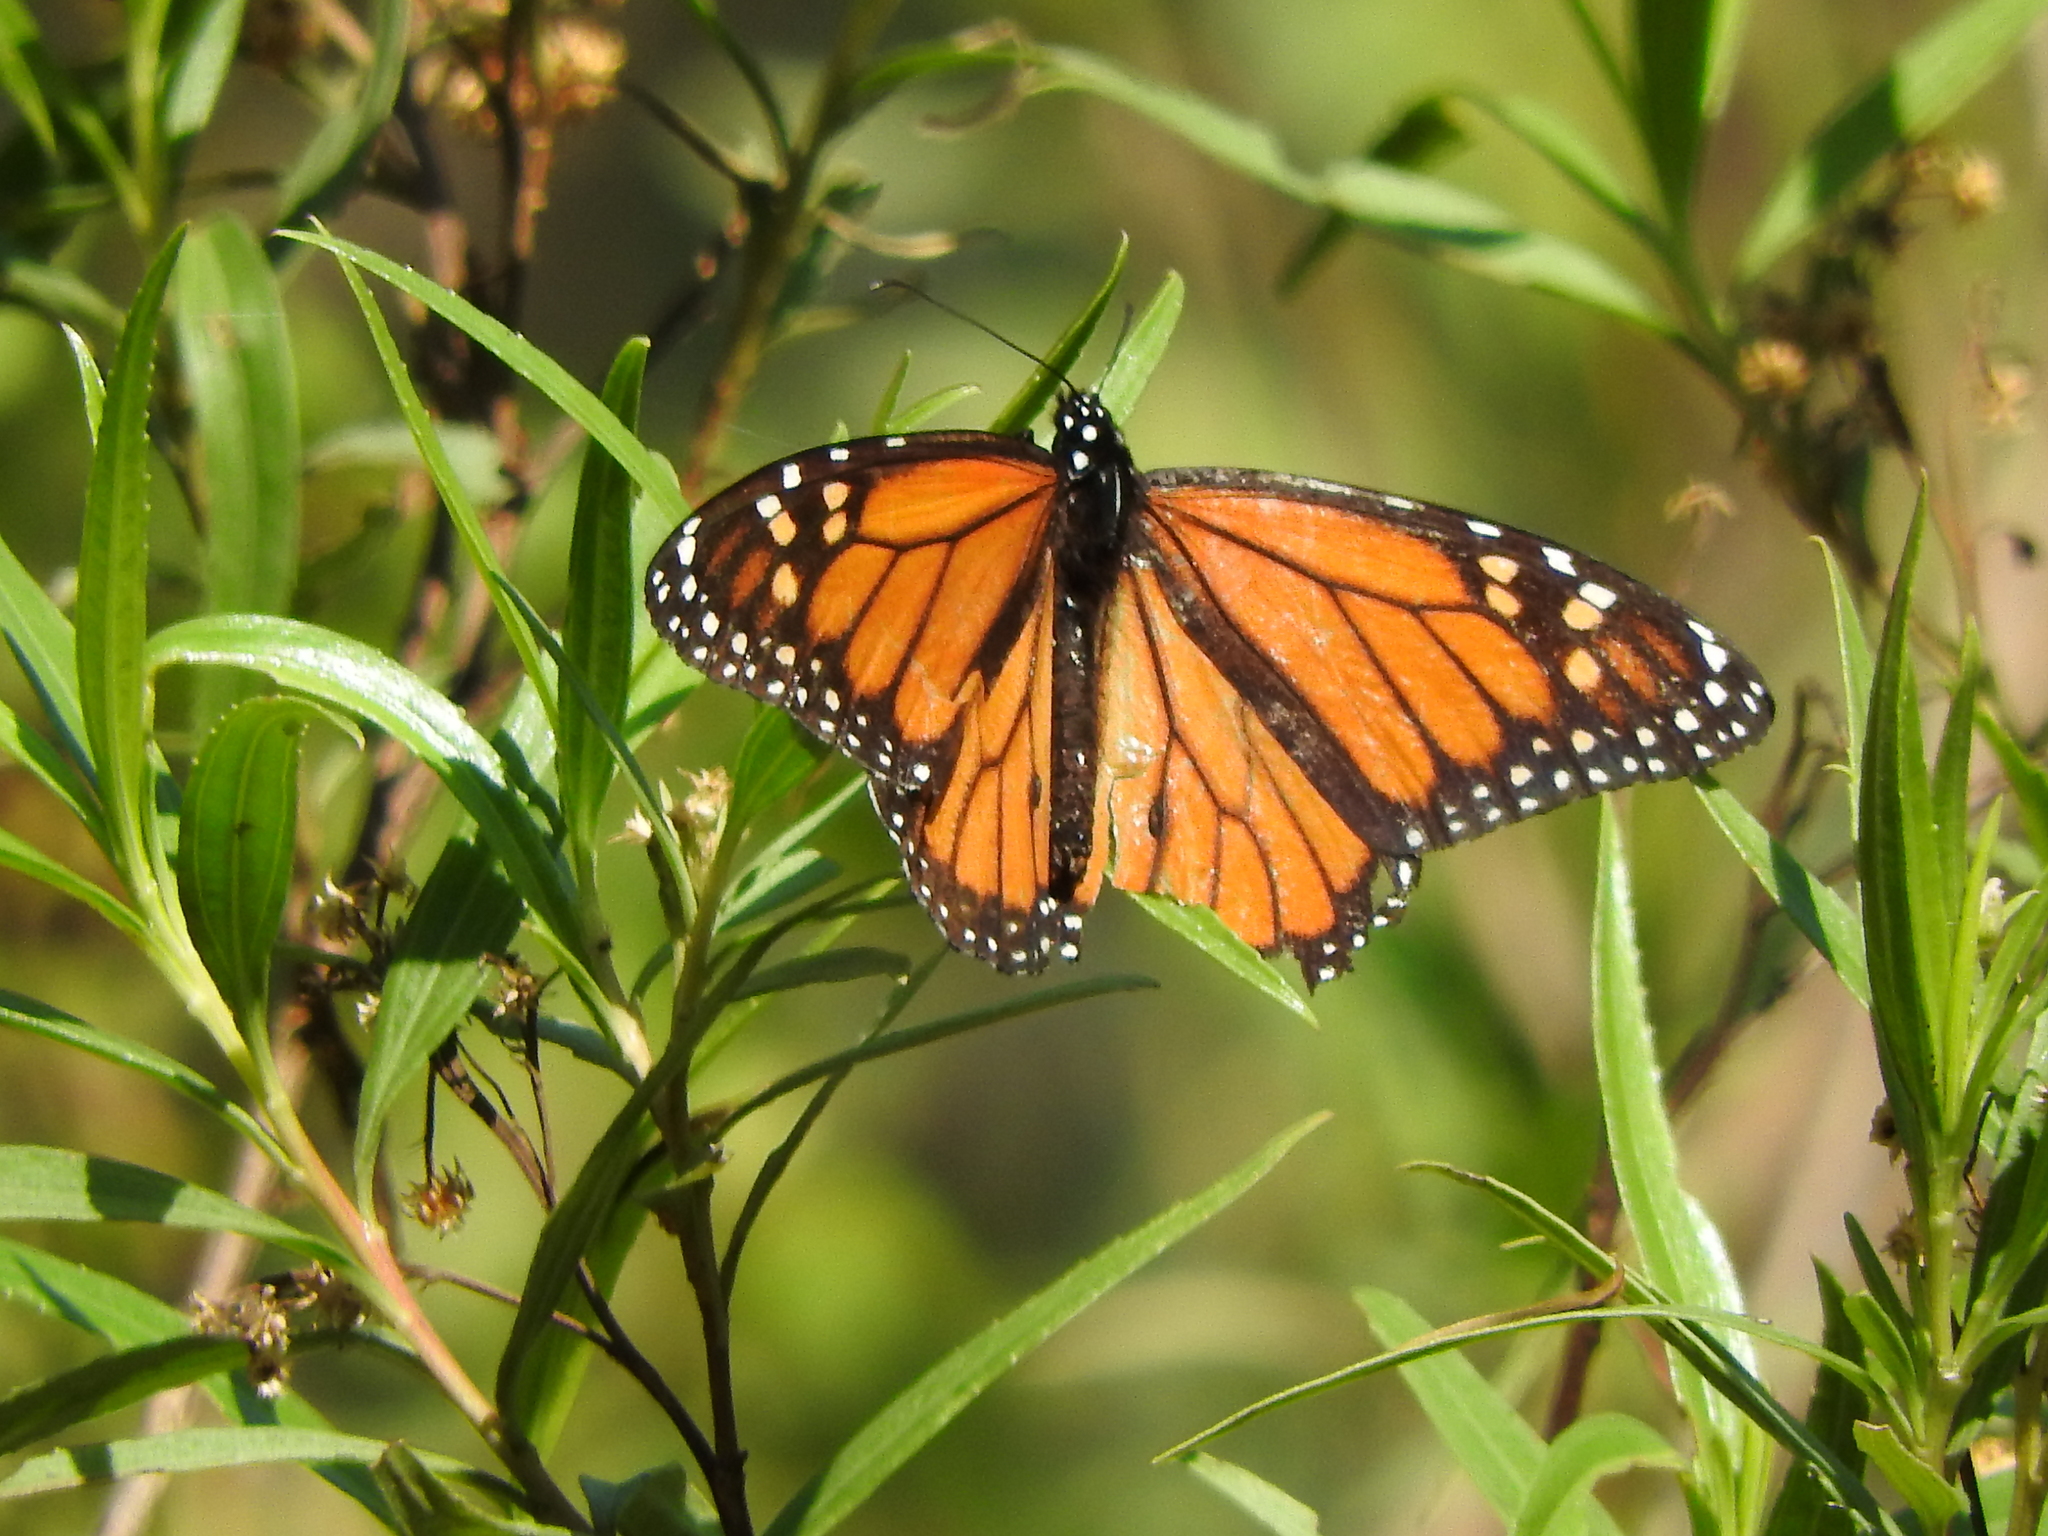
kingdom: Animalia
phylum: Arthropoda
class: Insecta
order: Lepidoptera
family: Nymphalidae
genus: Danaus
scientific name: Danaus plexippus
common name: Monarch
